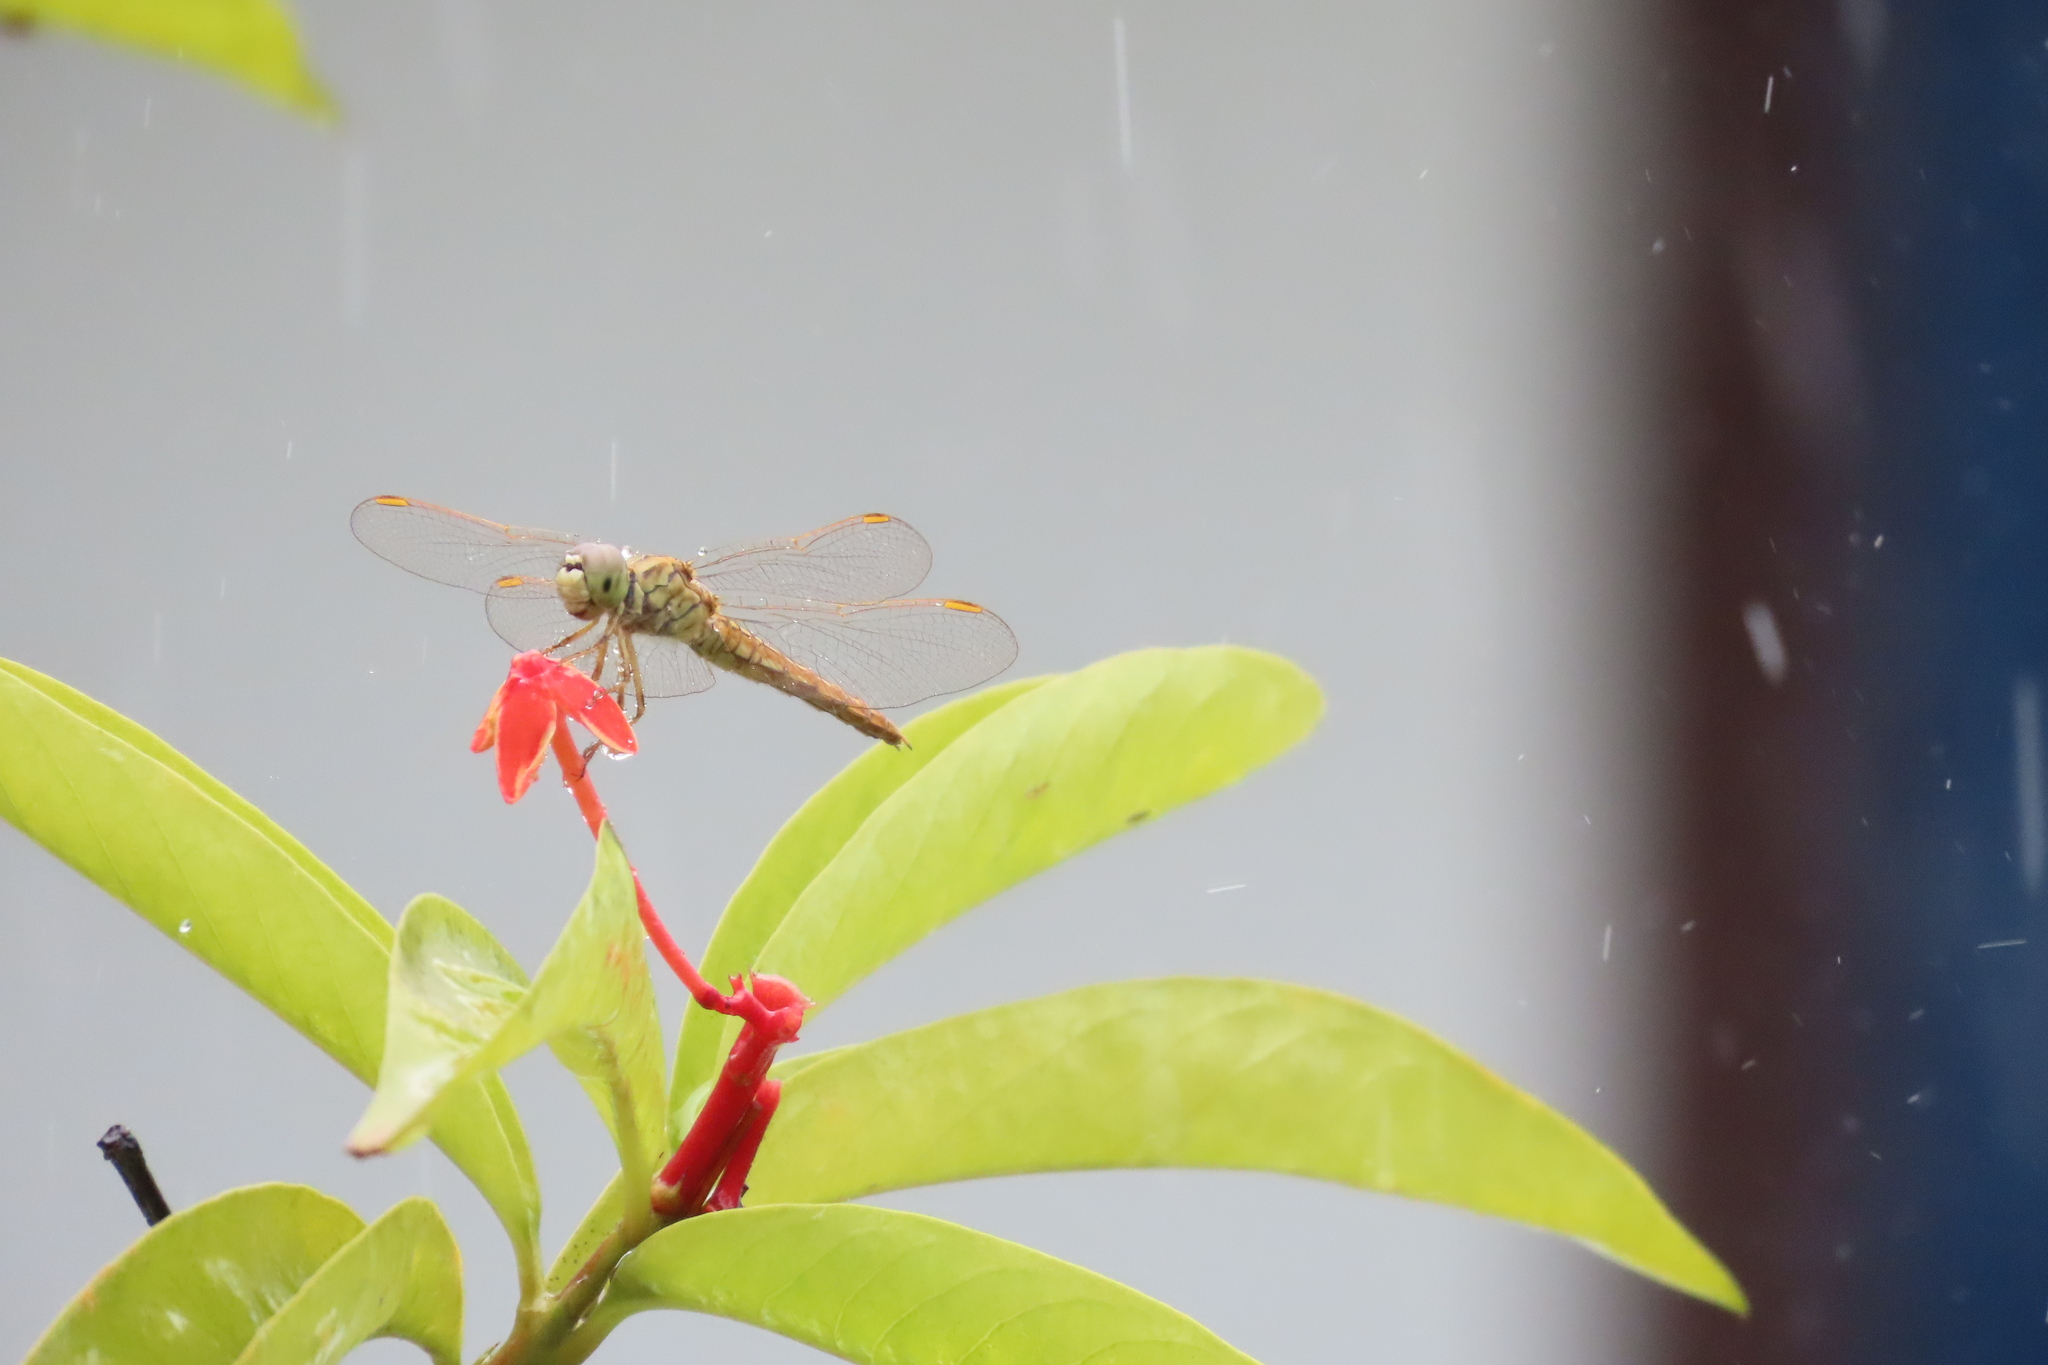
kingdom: Animalia
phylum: Arthropoda
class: Insecta
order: Odonata
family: Libellulidae
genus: Brachythemis
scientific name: Brachythemis contaminata
